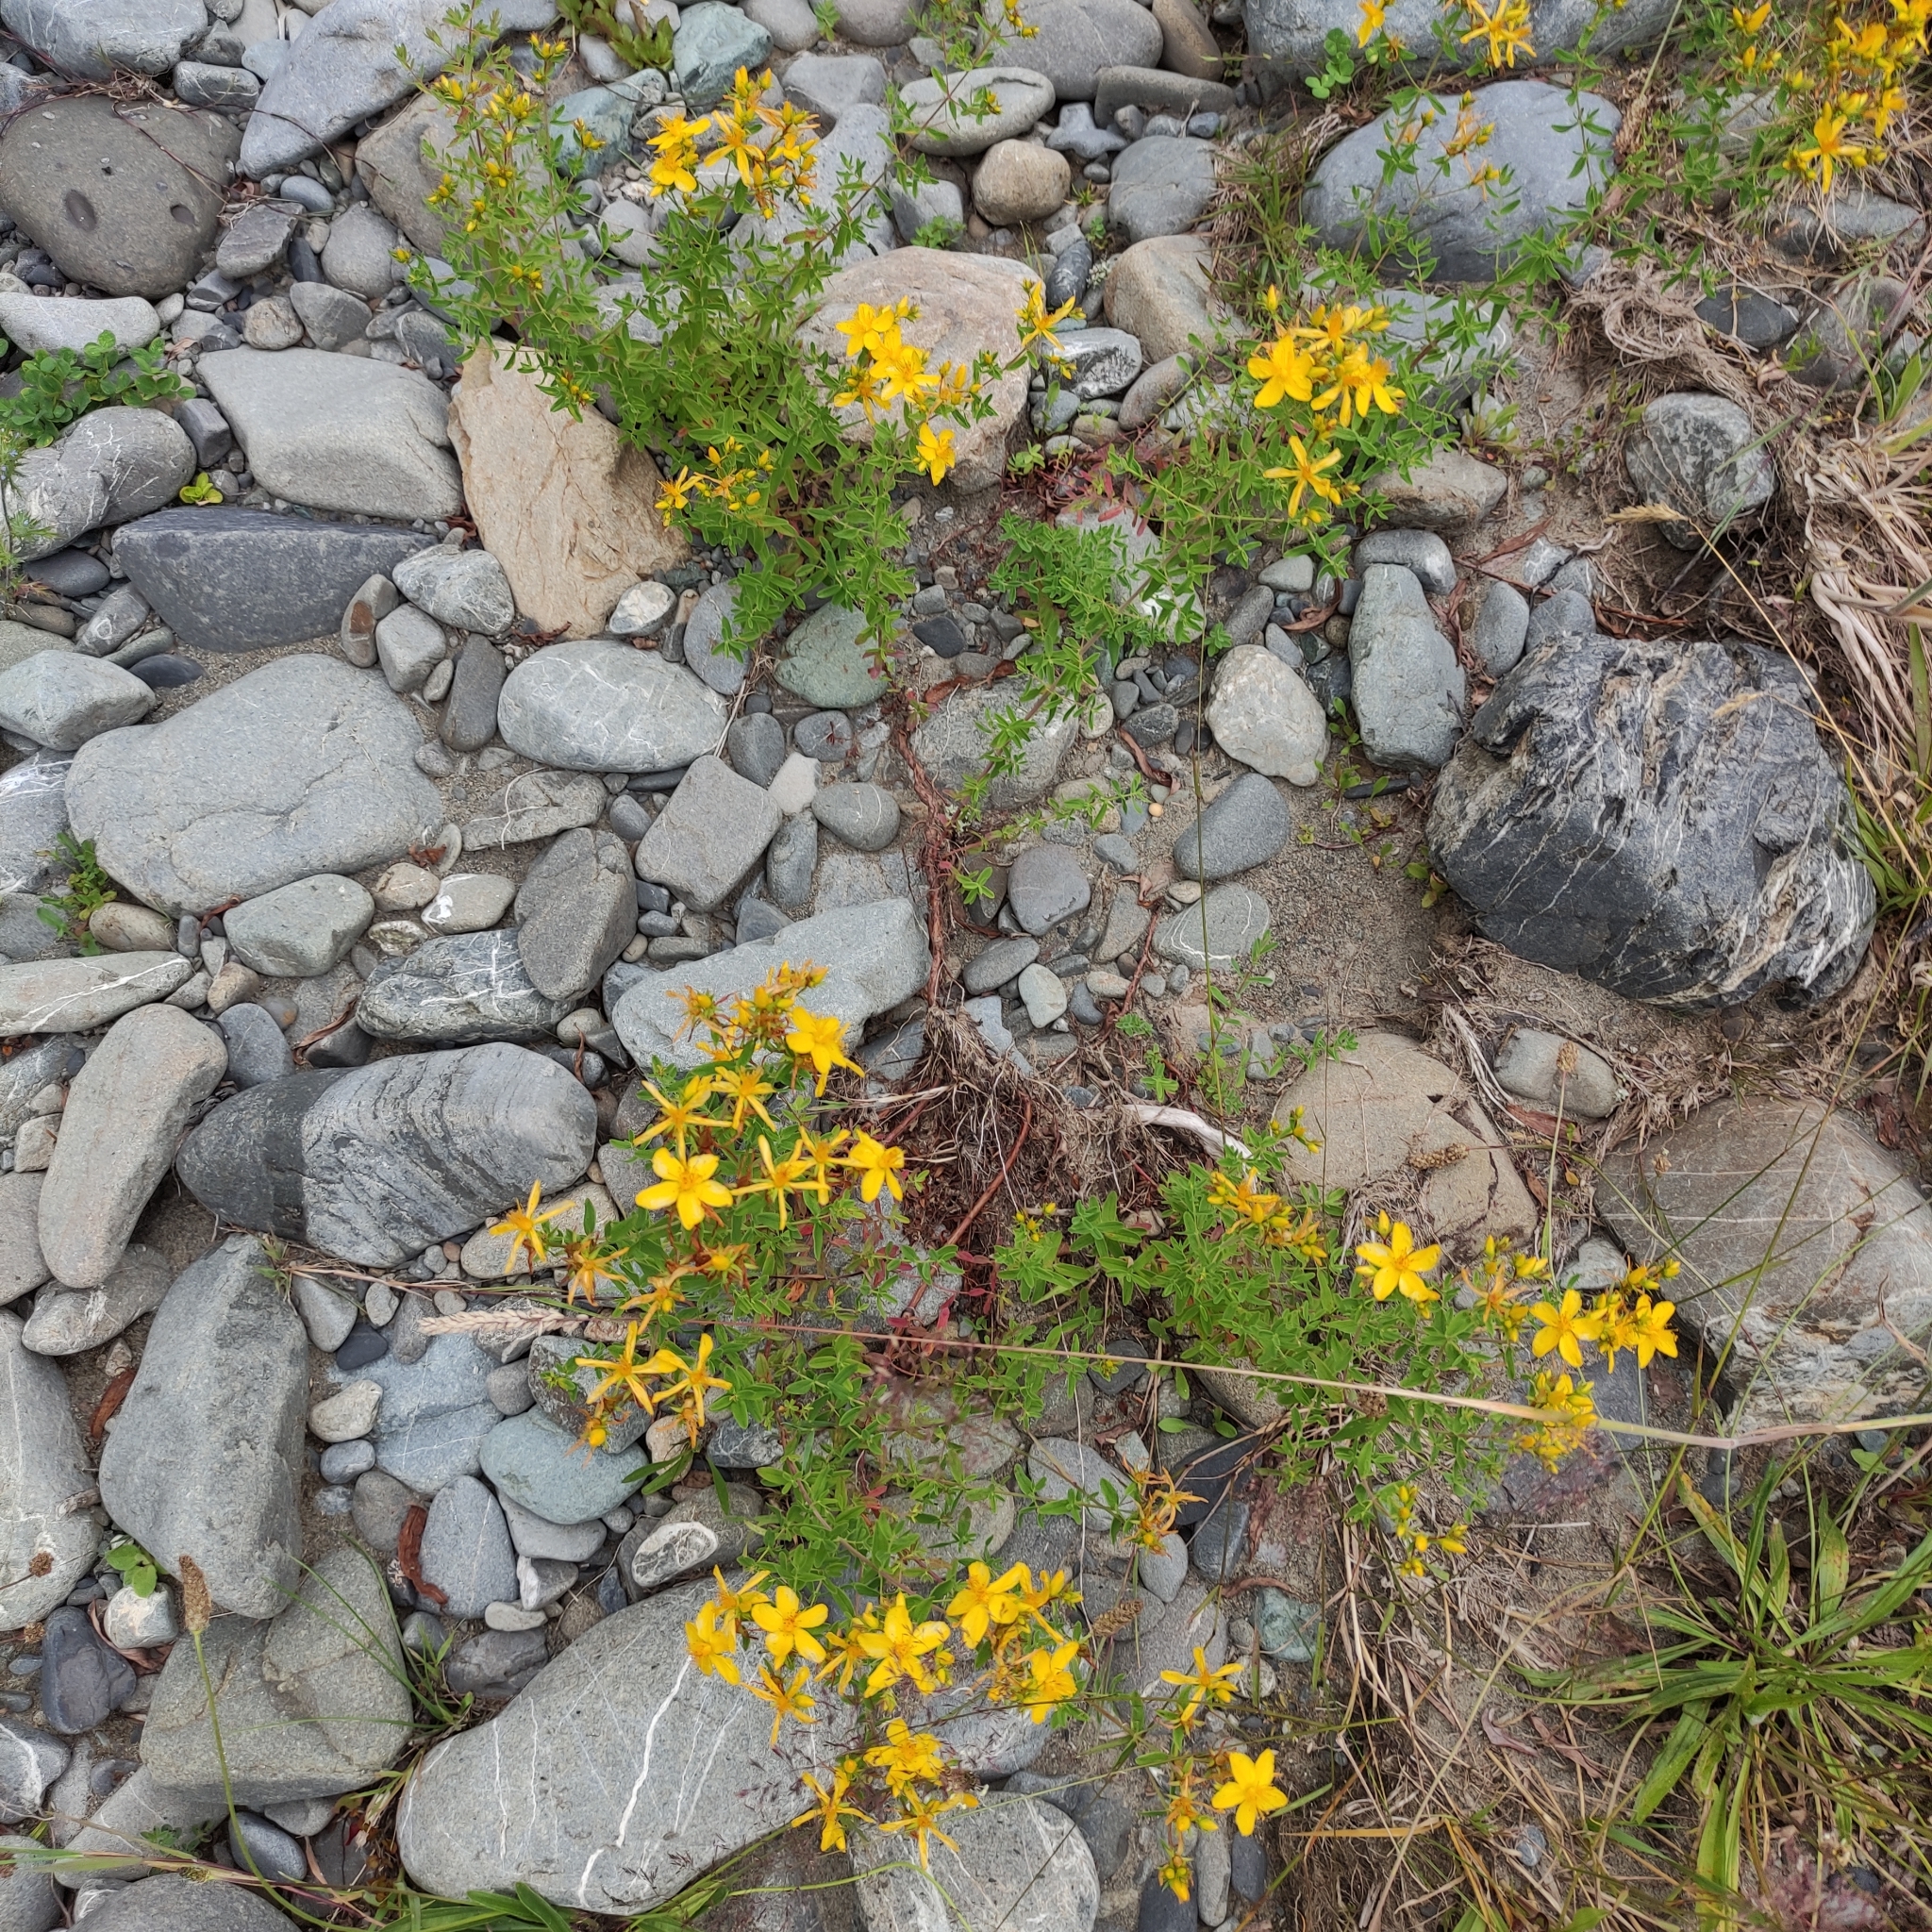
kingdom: Plantae
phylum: Tracheophyta
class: Magnoliopsida
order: Malpighiales
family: Hypericaceae
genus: Hypericum
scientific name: Hypericum perforatum
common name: Common st. johnswort
